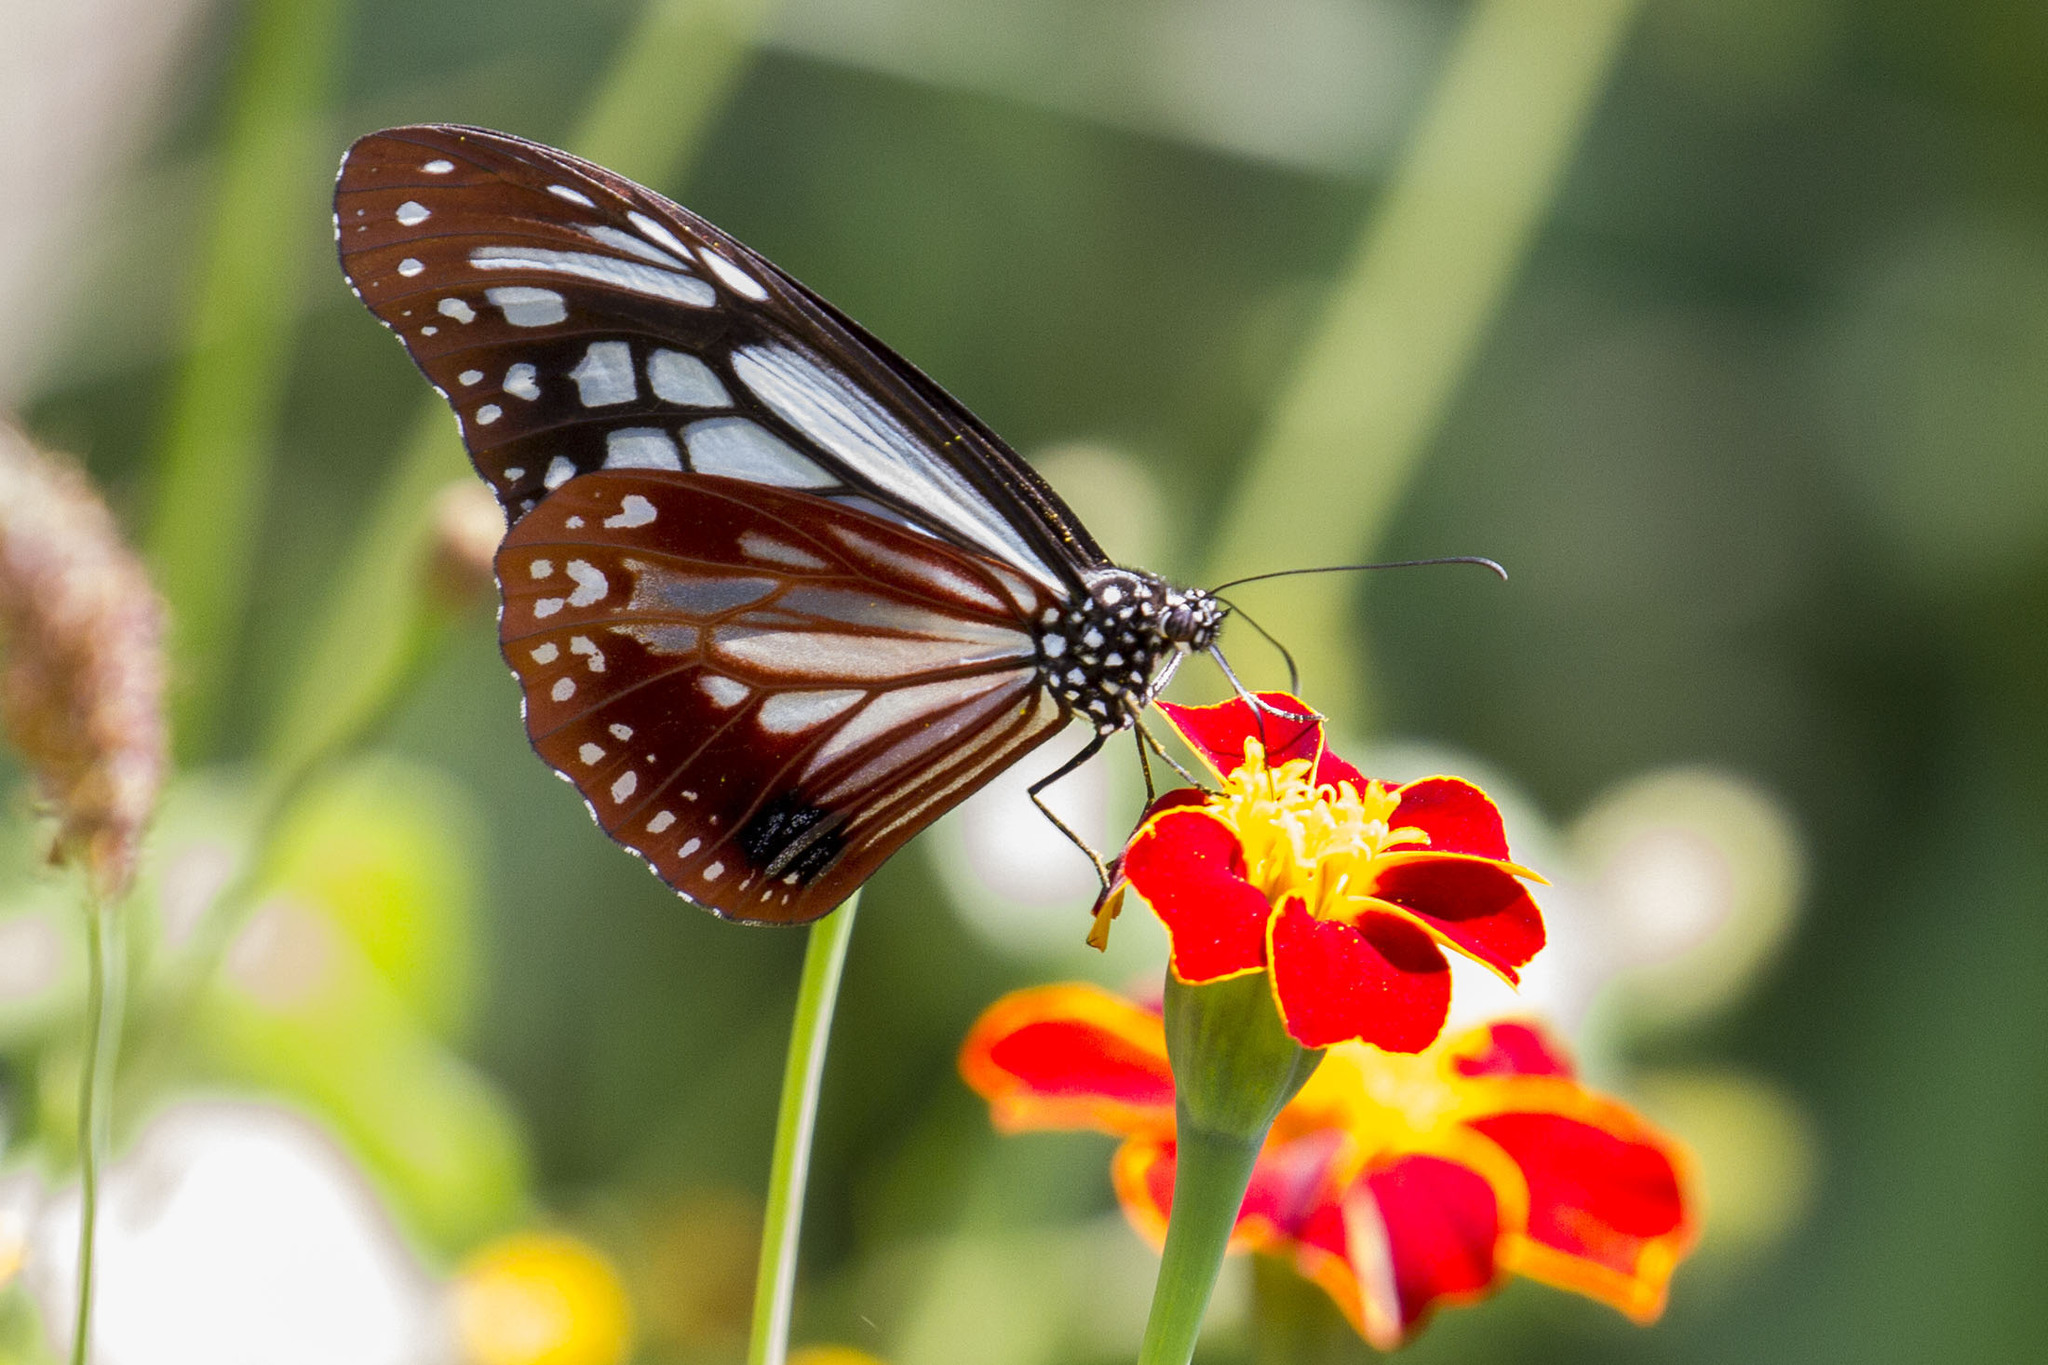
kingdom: Animalia
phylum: Arthropoda
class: Insecta
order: Lepidoptera
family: Nymphalidae
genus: Parantica
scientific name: Parantica sita
